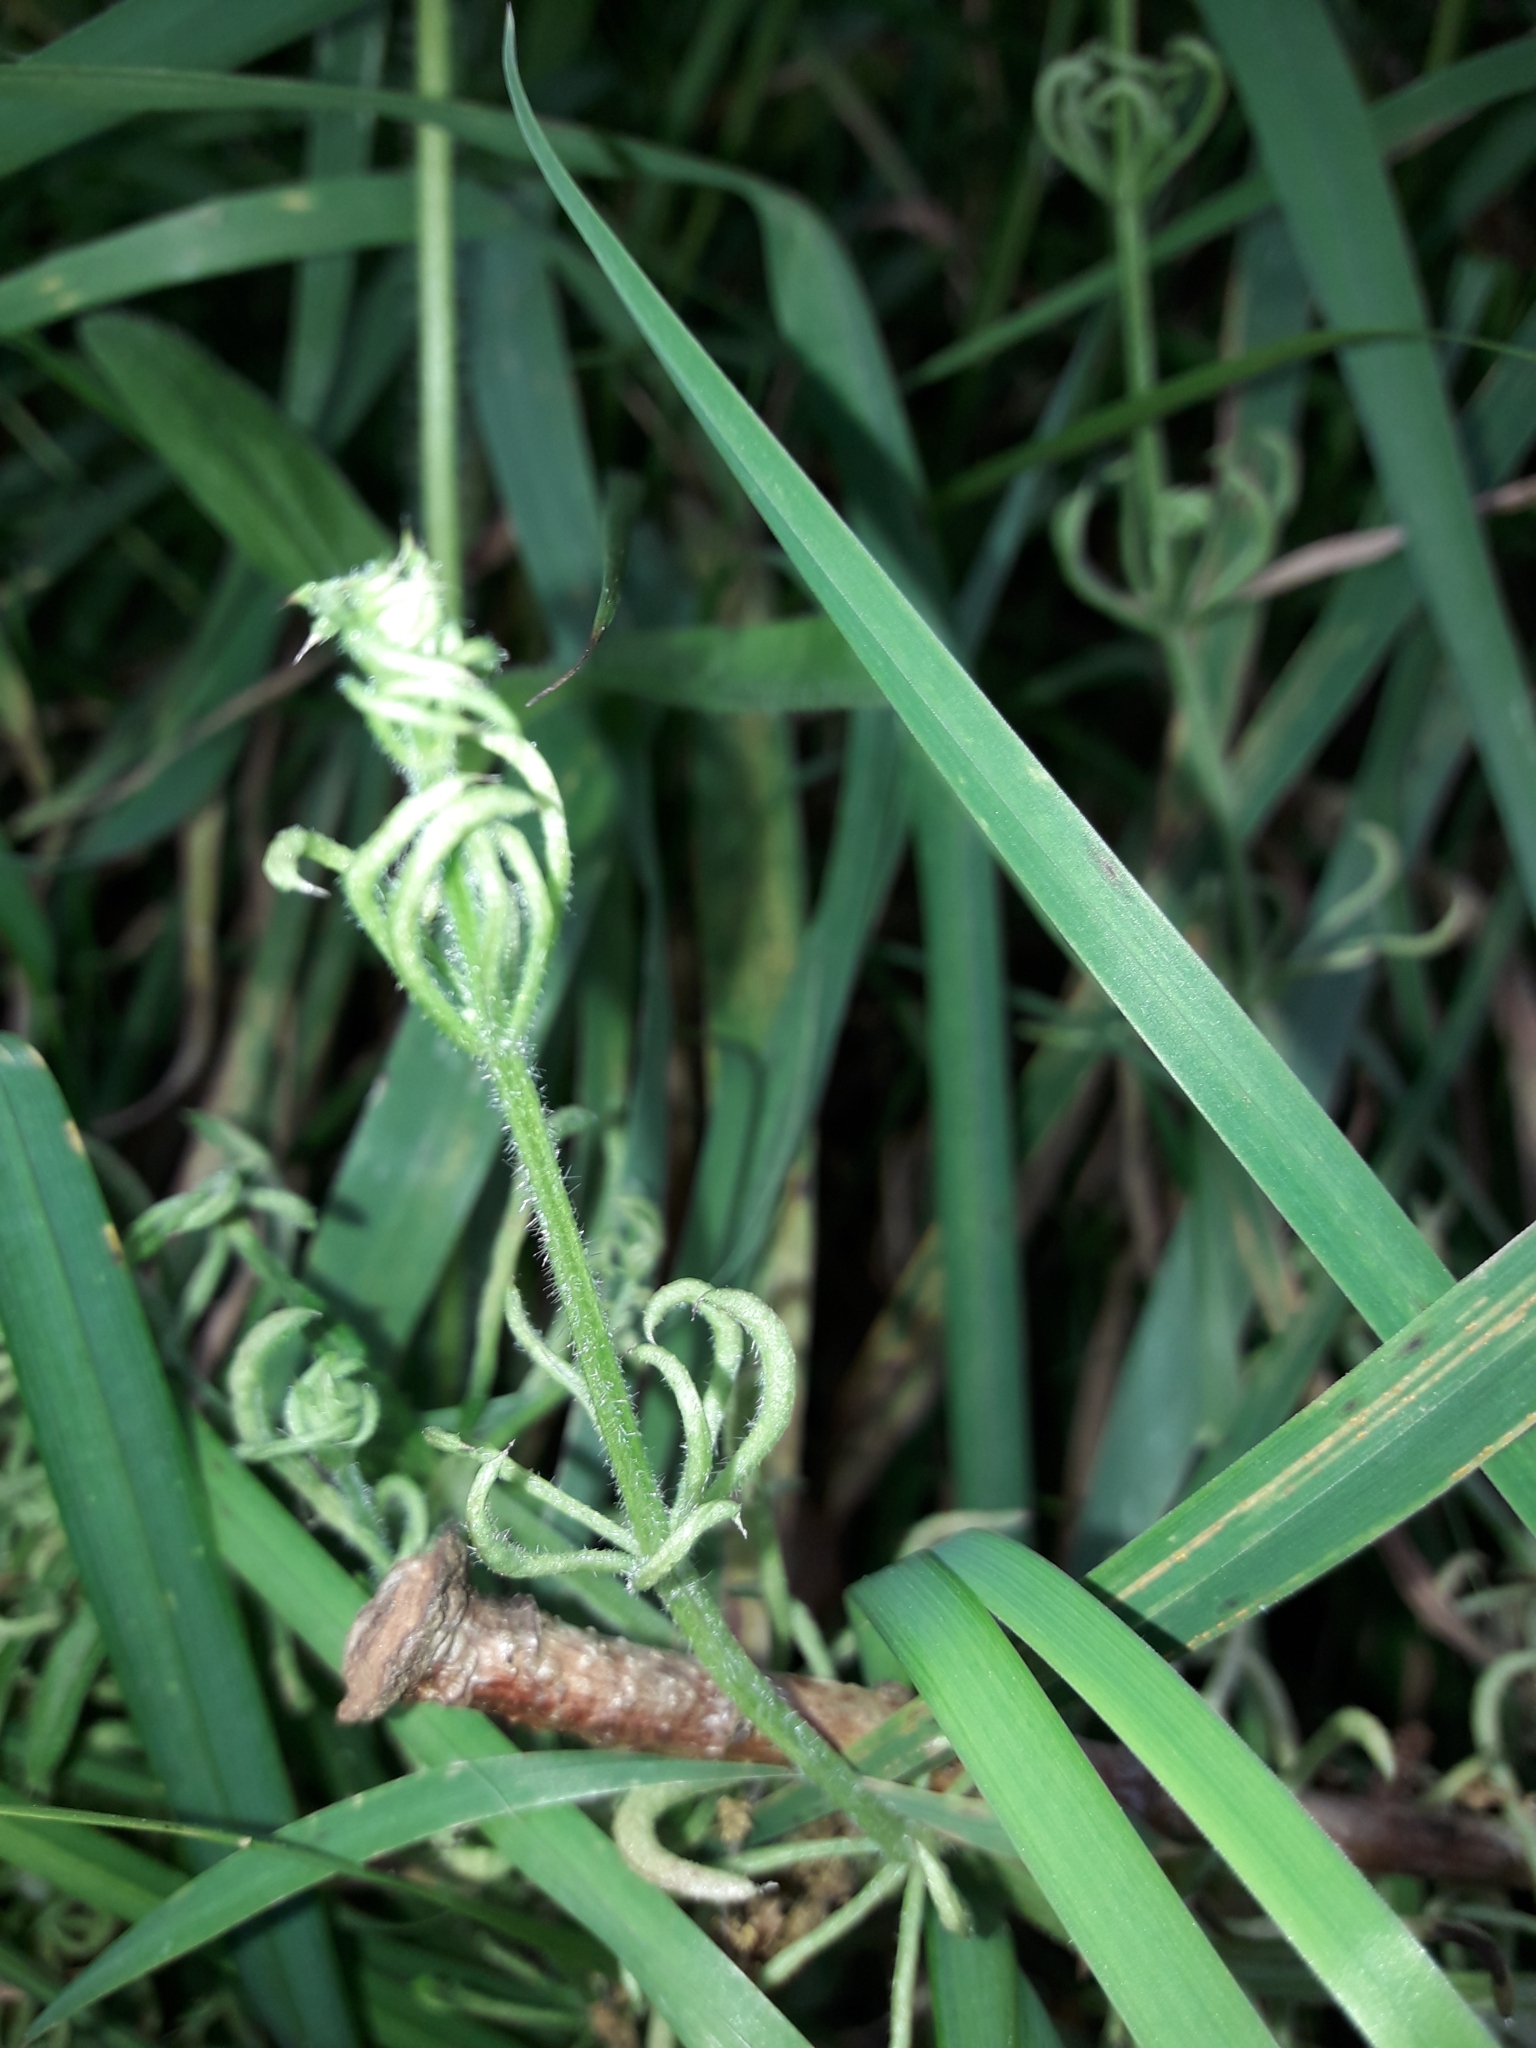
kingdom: Animalia
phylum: Arthropoda
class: Arachnida
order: Trombidiformes
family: Eriophyidae
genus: Cecidophyes
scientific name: Cecidophyes rouhollahi
